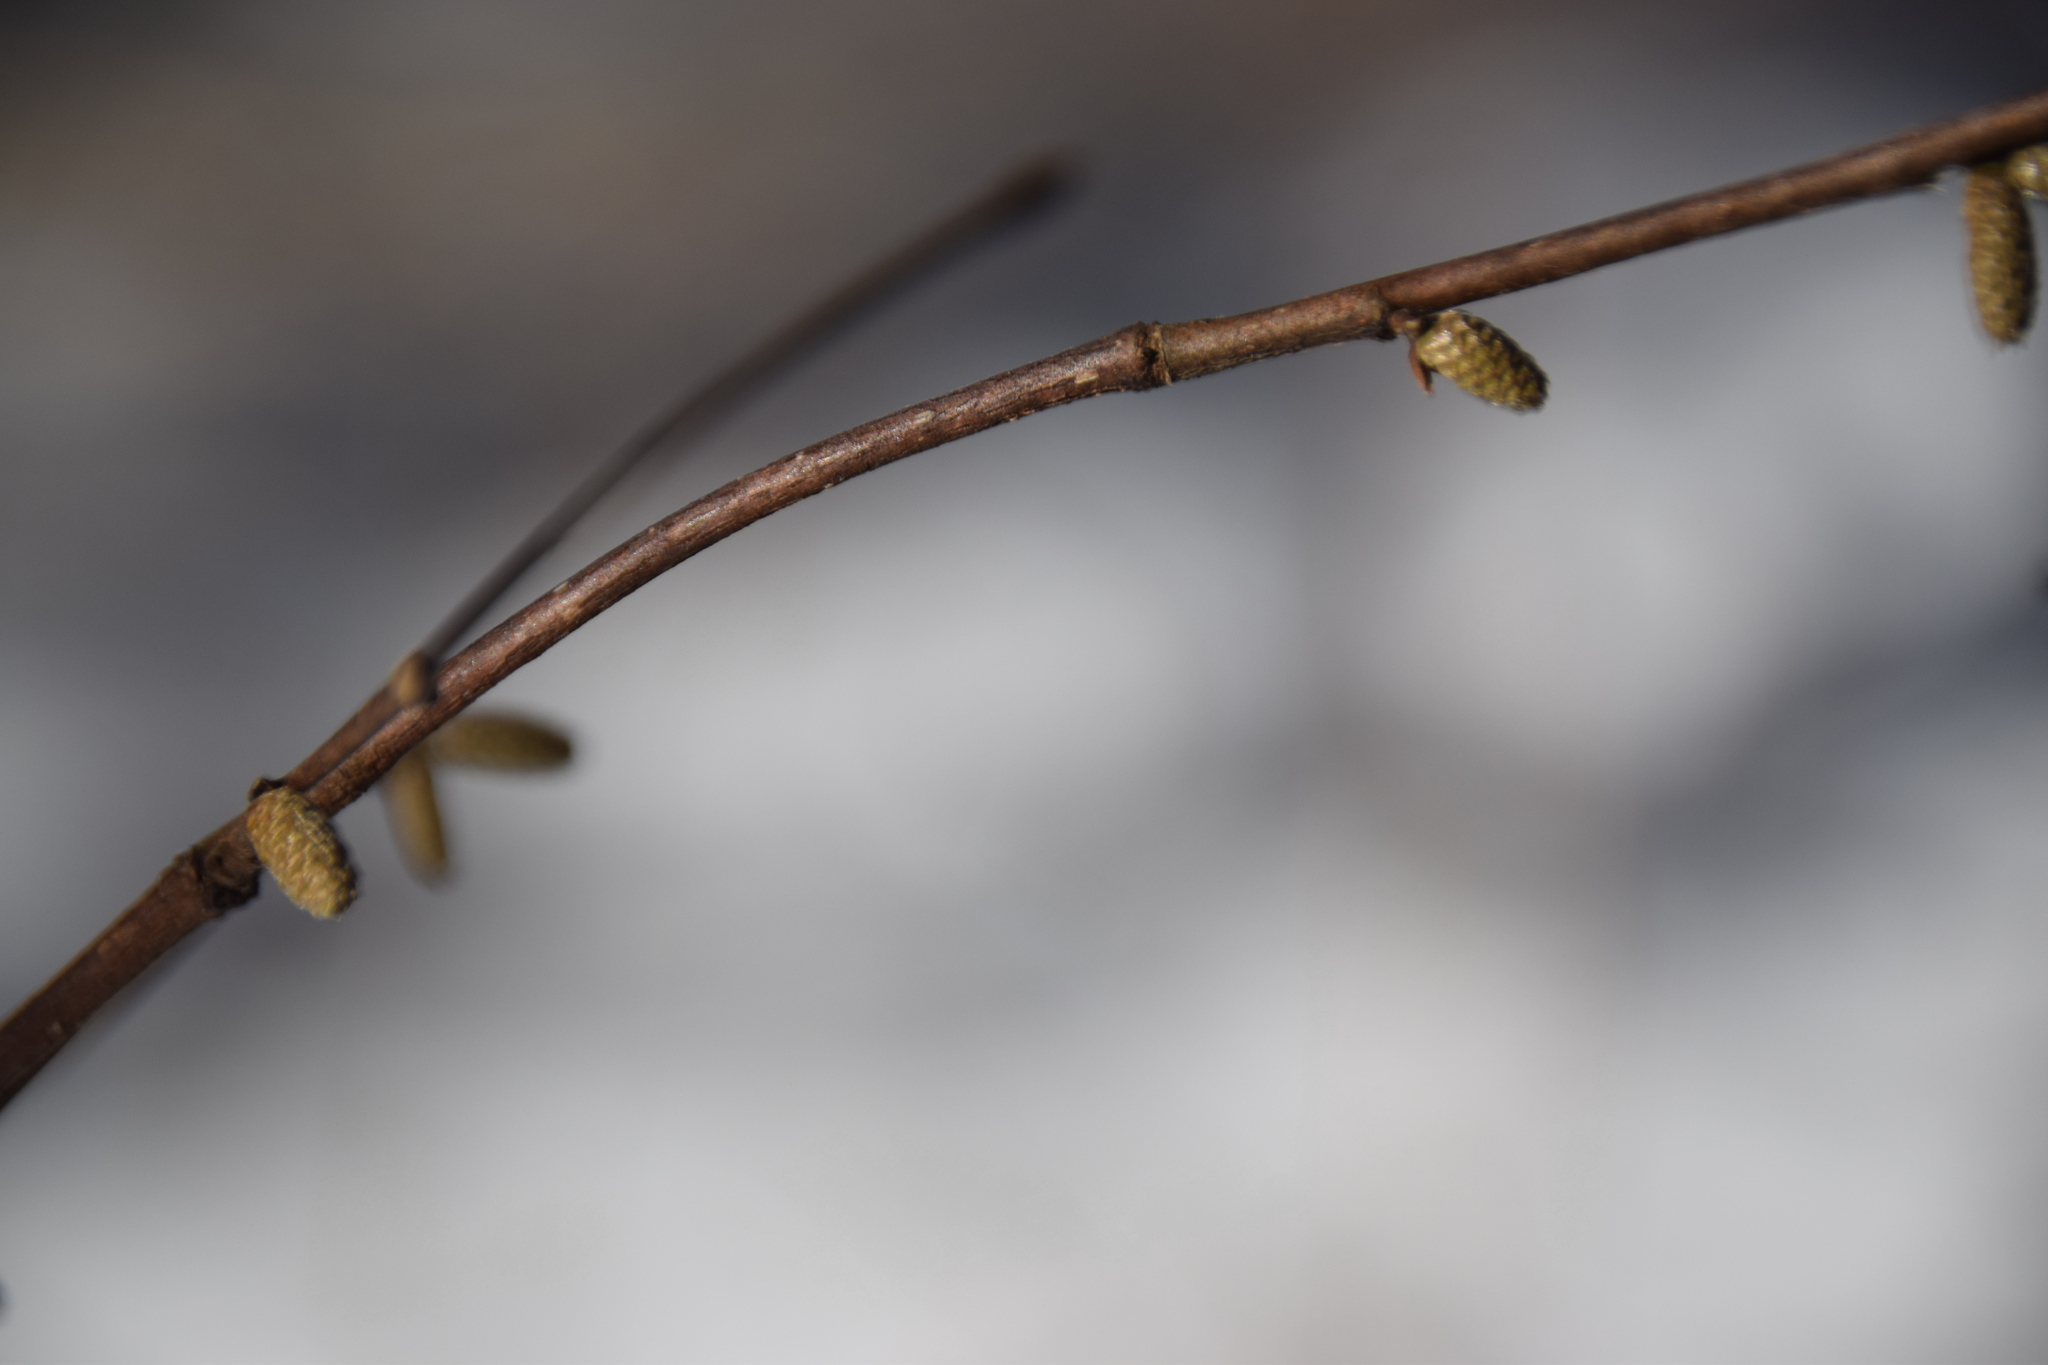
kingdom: Plantae
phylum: Tracheophyta
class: Magnoliopsida
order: Fagales
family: Betulaceae
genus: Corylus
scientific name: Corylus cornuta
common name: Beaked hazel
